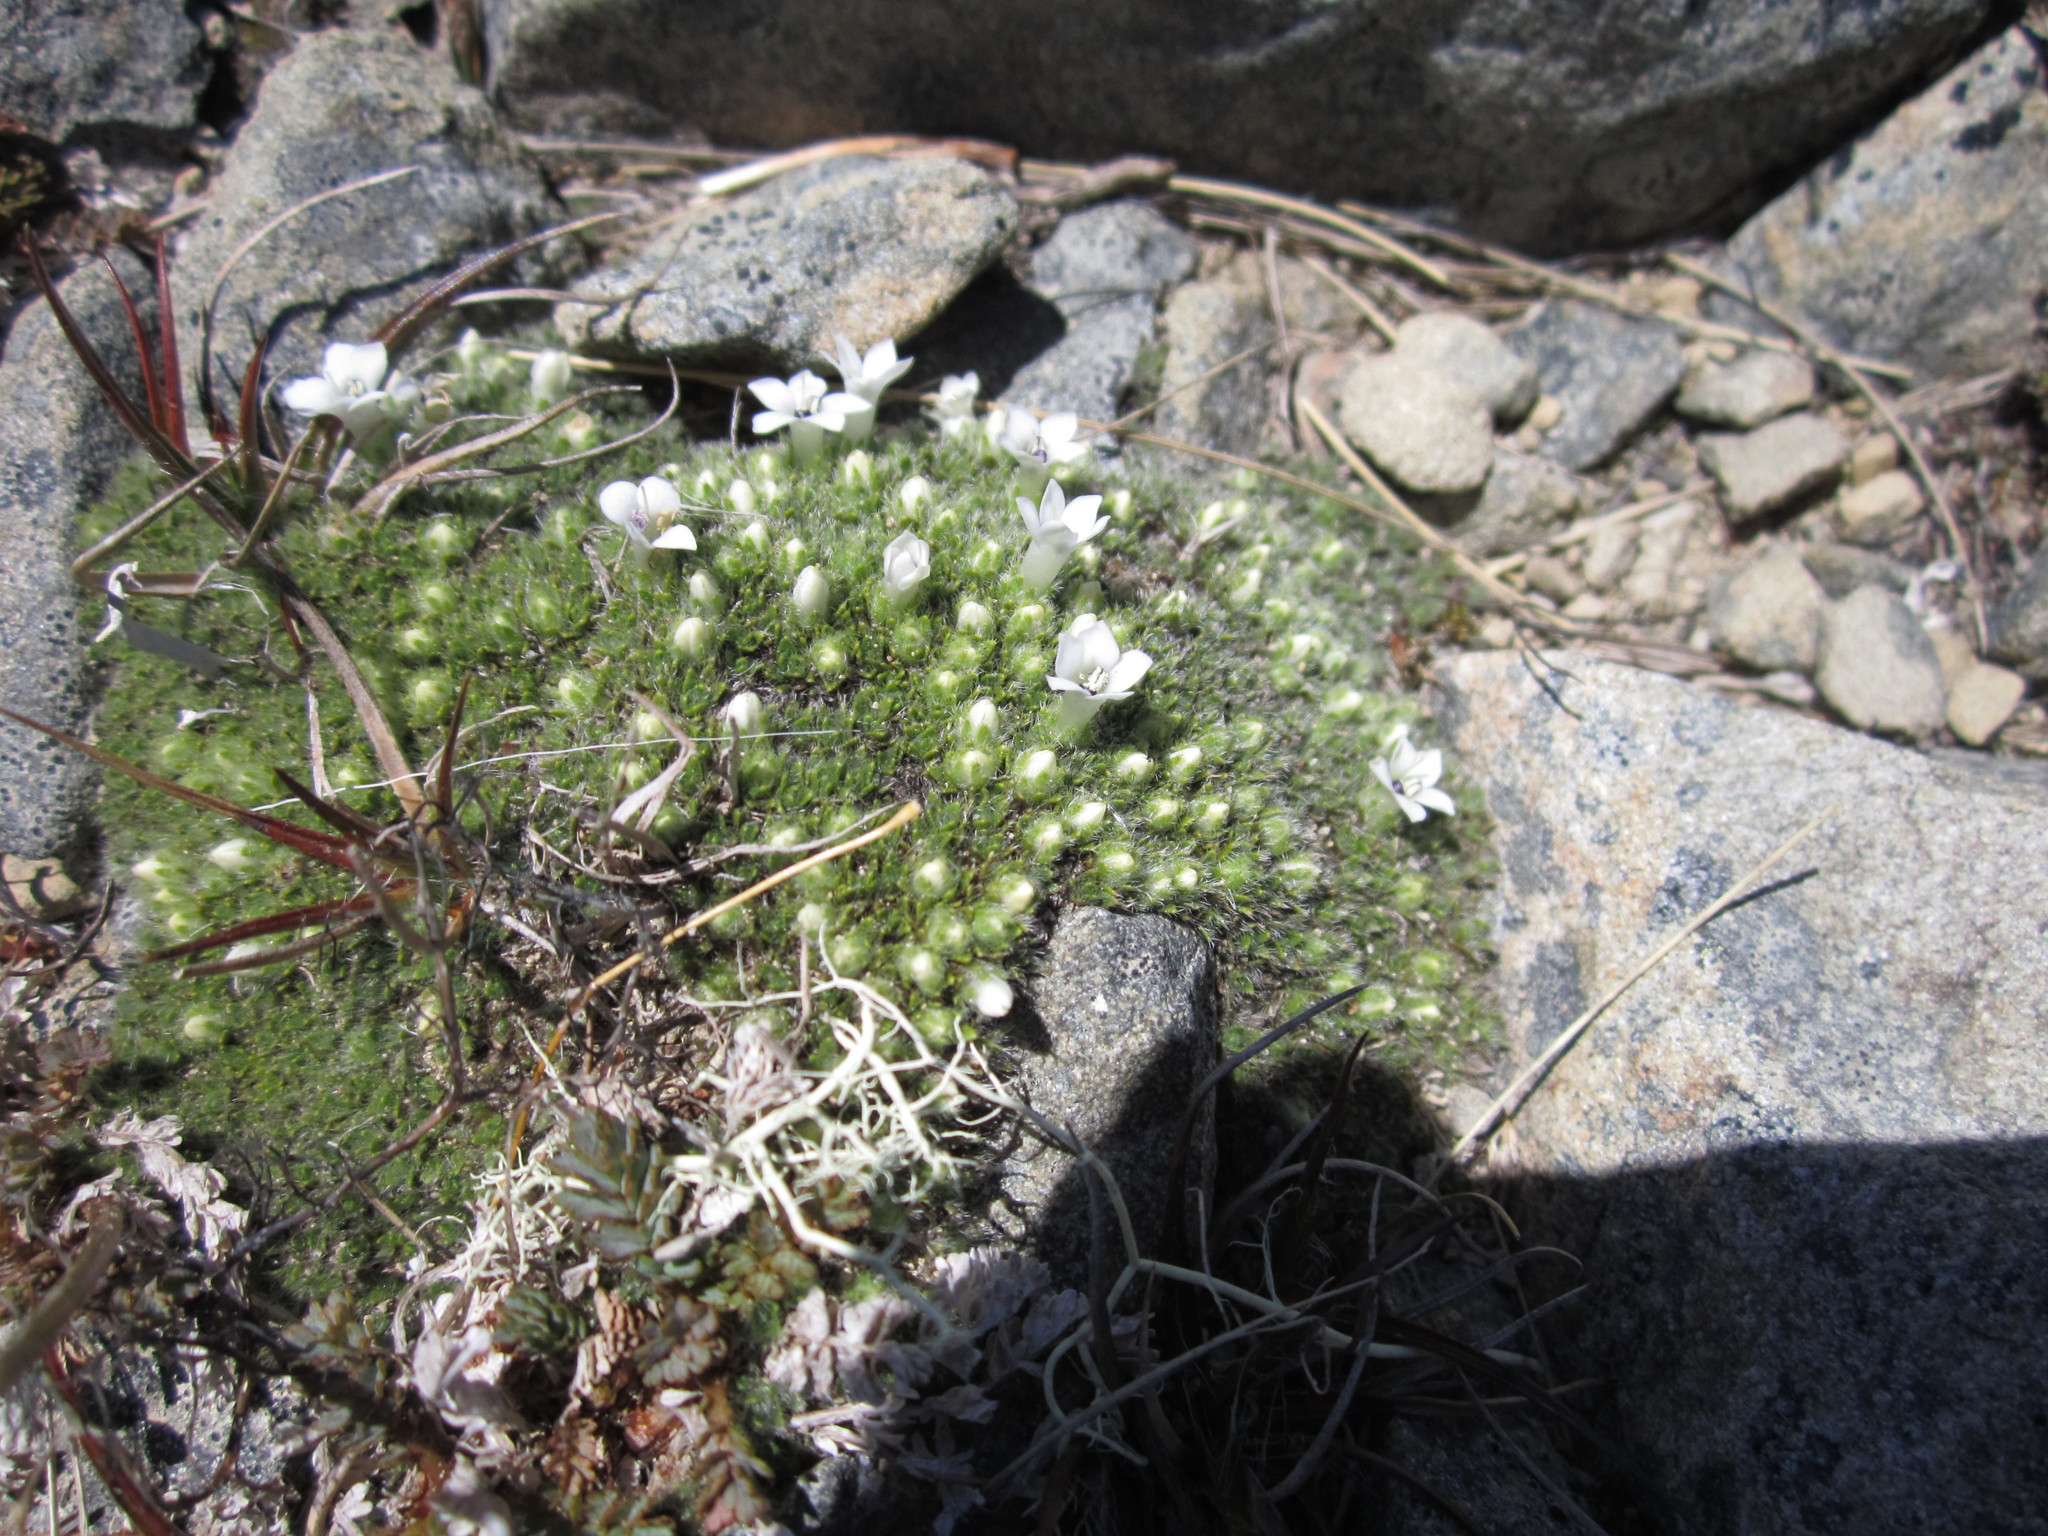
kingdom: Plantae
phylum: Tracheophyta
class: Magnoliopsida
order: Lamiales
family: Plantaginaceae
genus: Veronica
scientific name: Veronica pulvinaris
